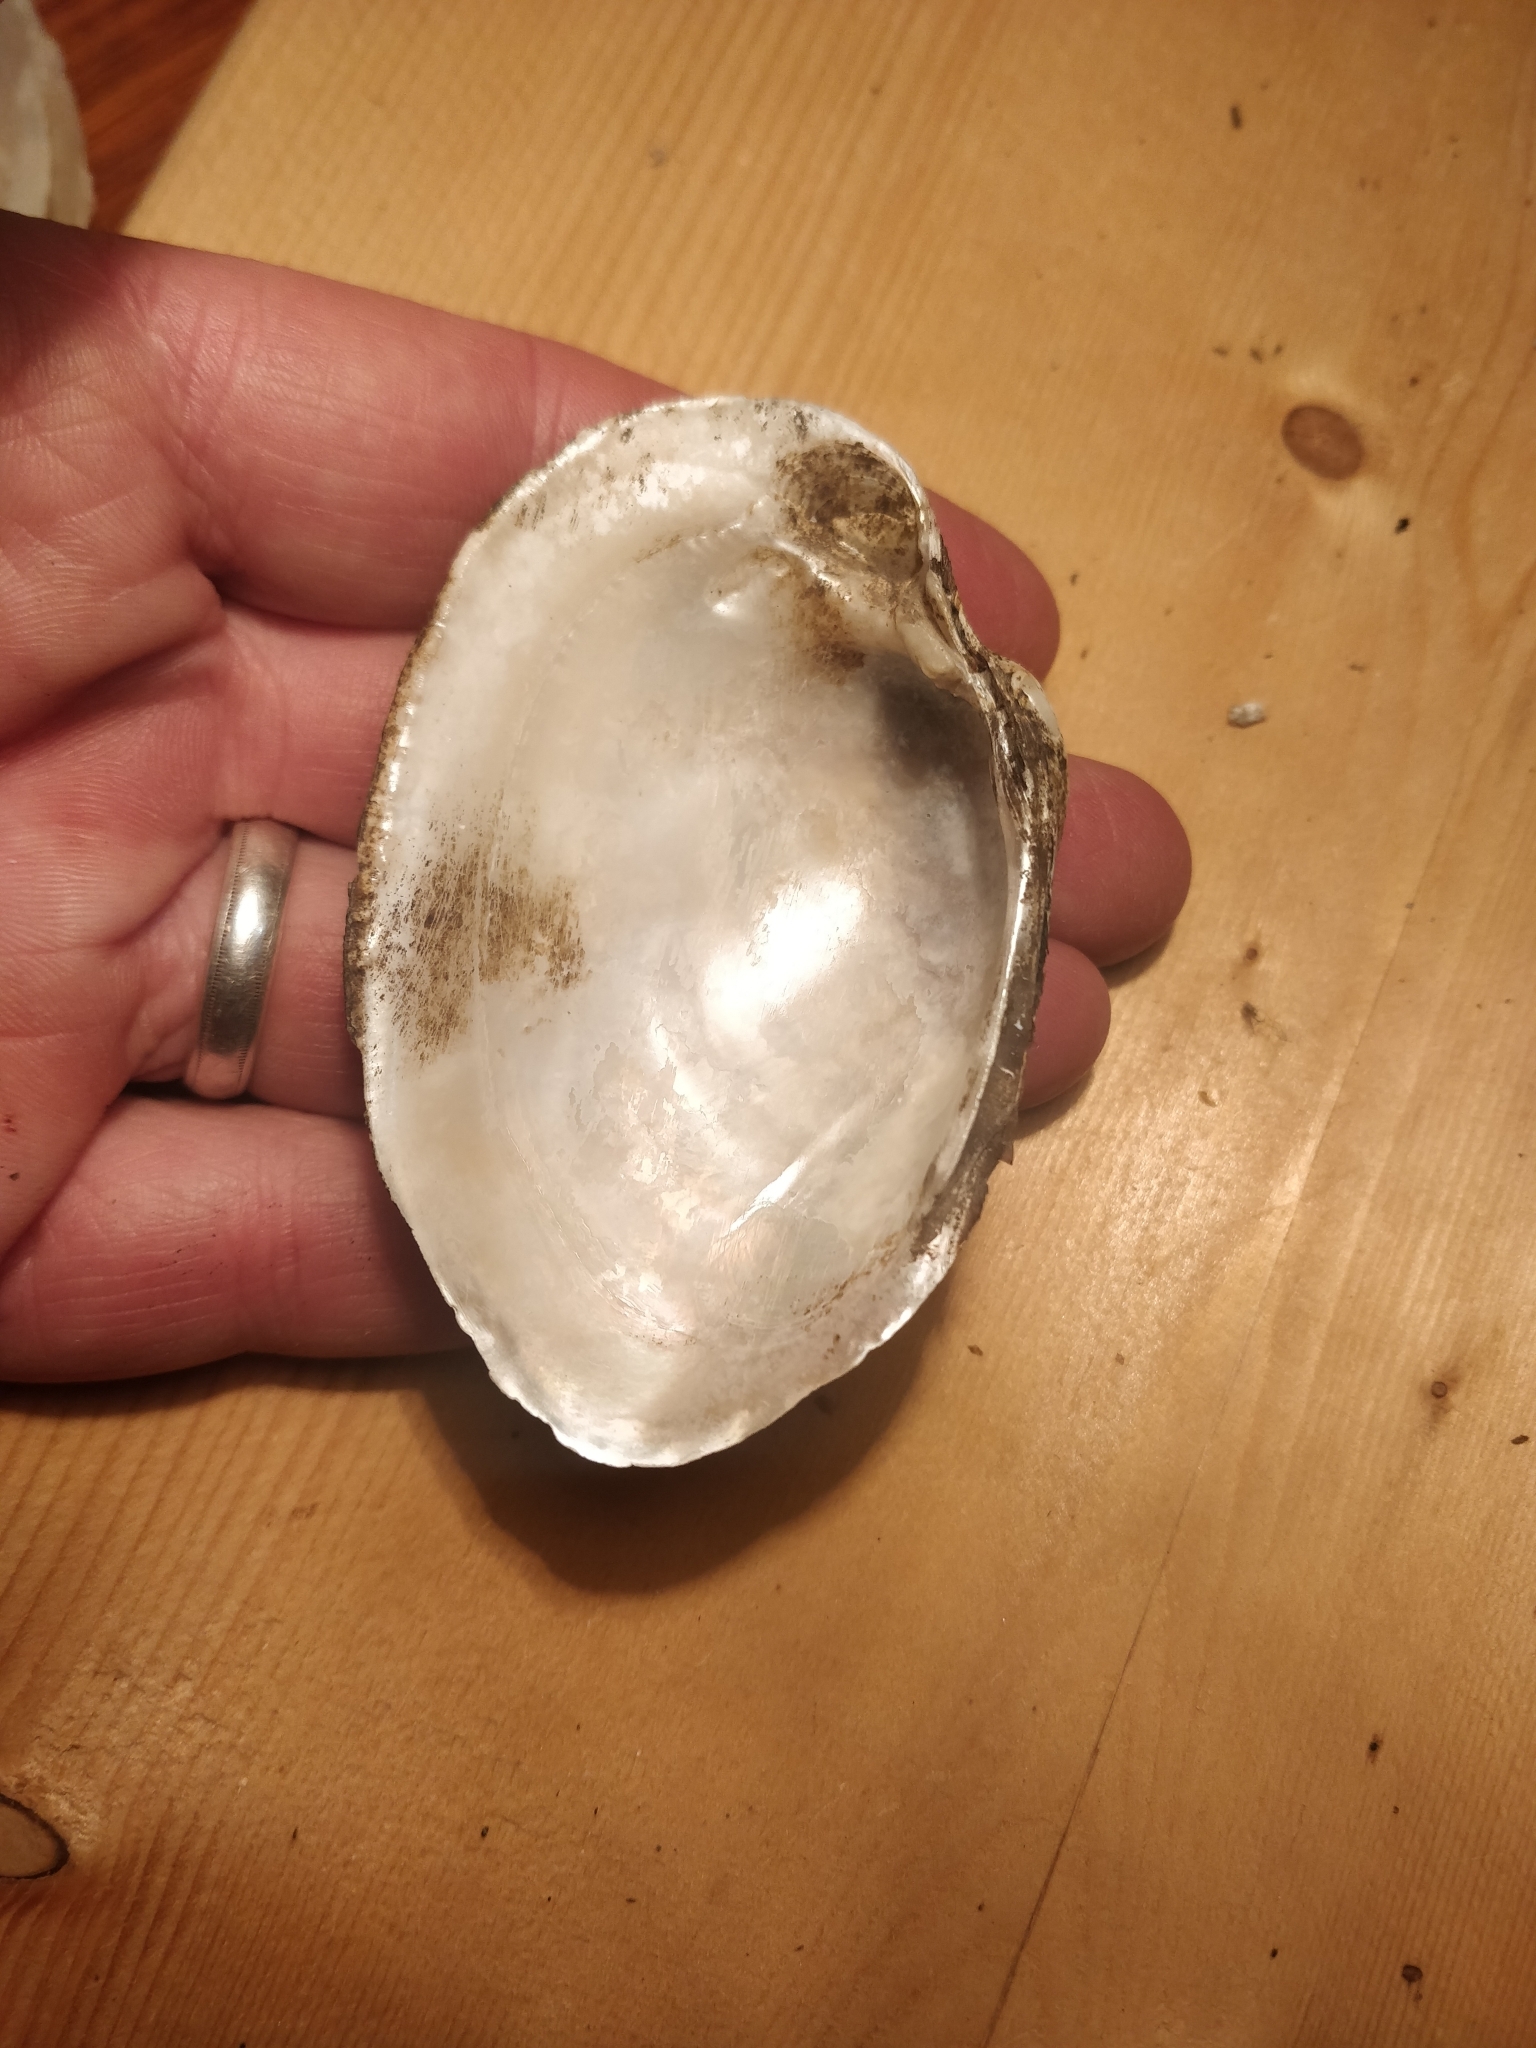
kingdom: Animalia
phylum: Mollusca
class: Bivalvia
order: Unionida
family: Unionidae
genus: Lampsilis
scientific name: Lampsilis cardium
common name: Plain pocketbook
